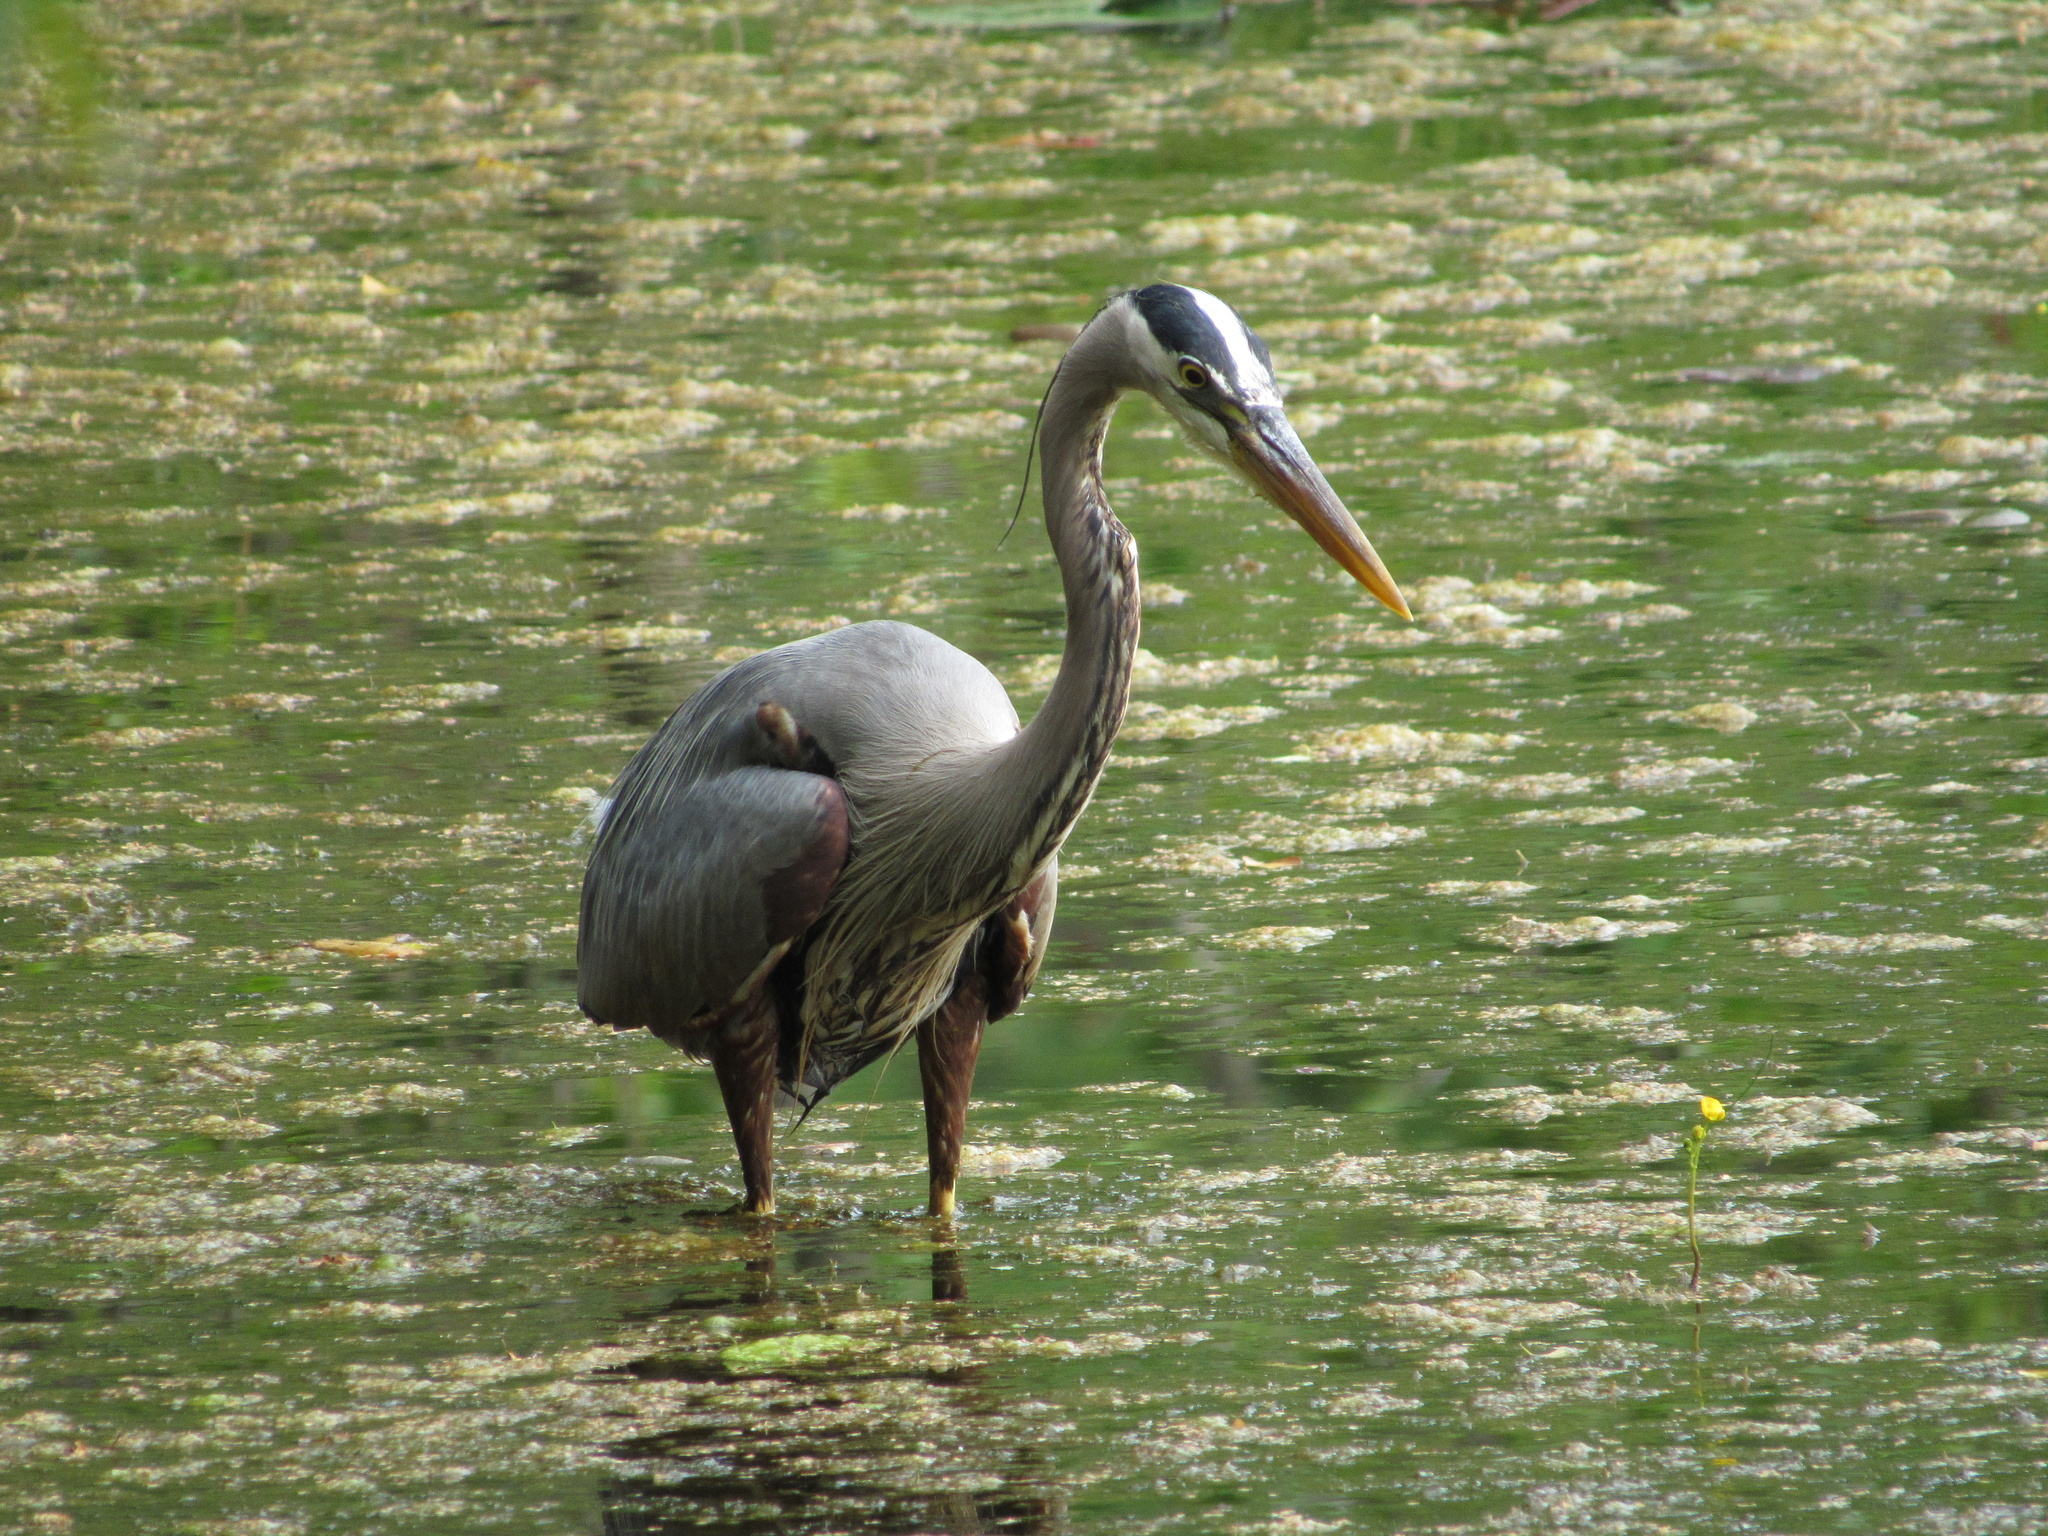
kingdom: Animalia
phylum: Chordata
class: Aves
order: Pelecaniformes
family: Ardeidae
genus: Ardea
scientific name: Ardea herodias
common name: Great blue heron
